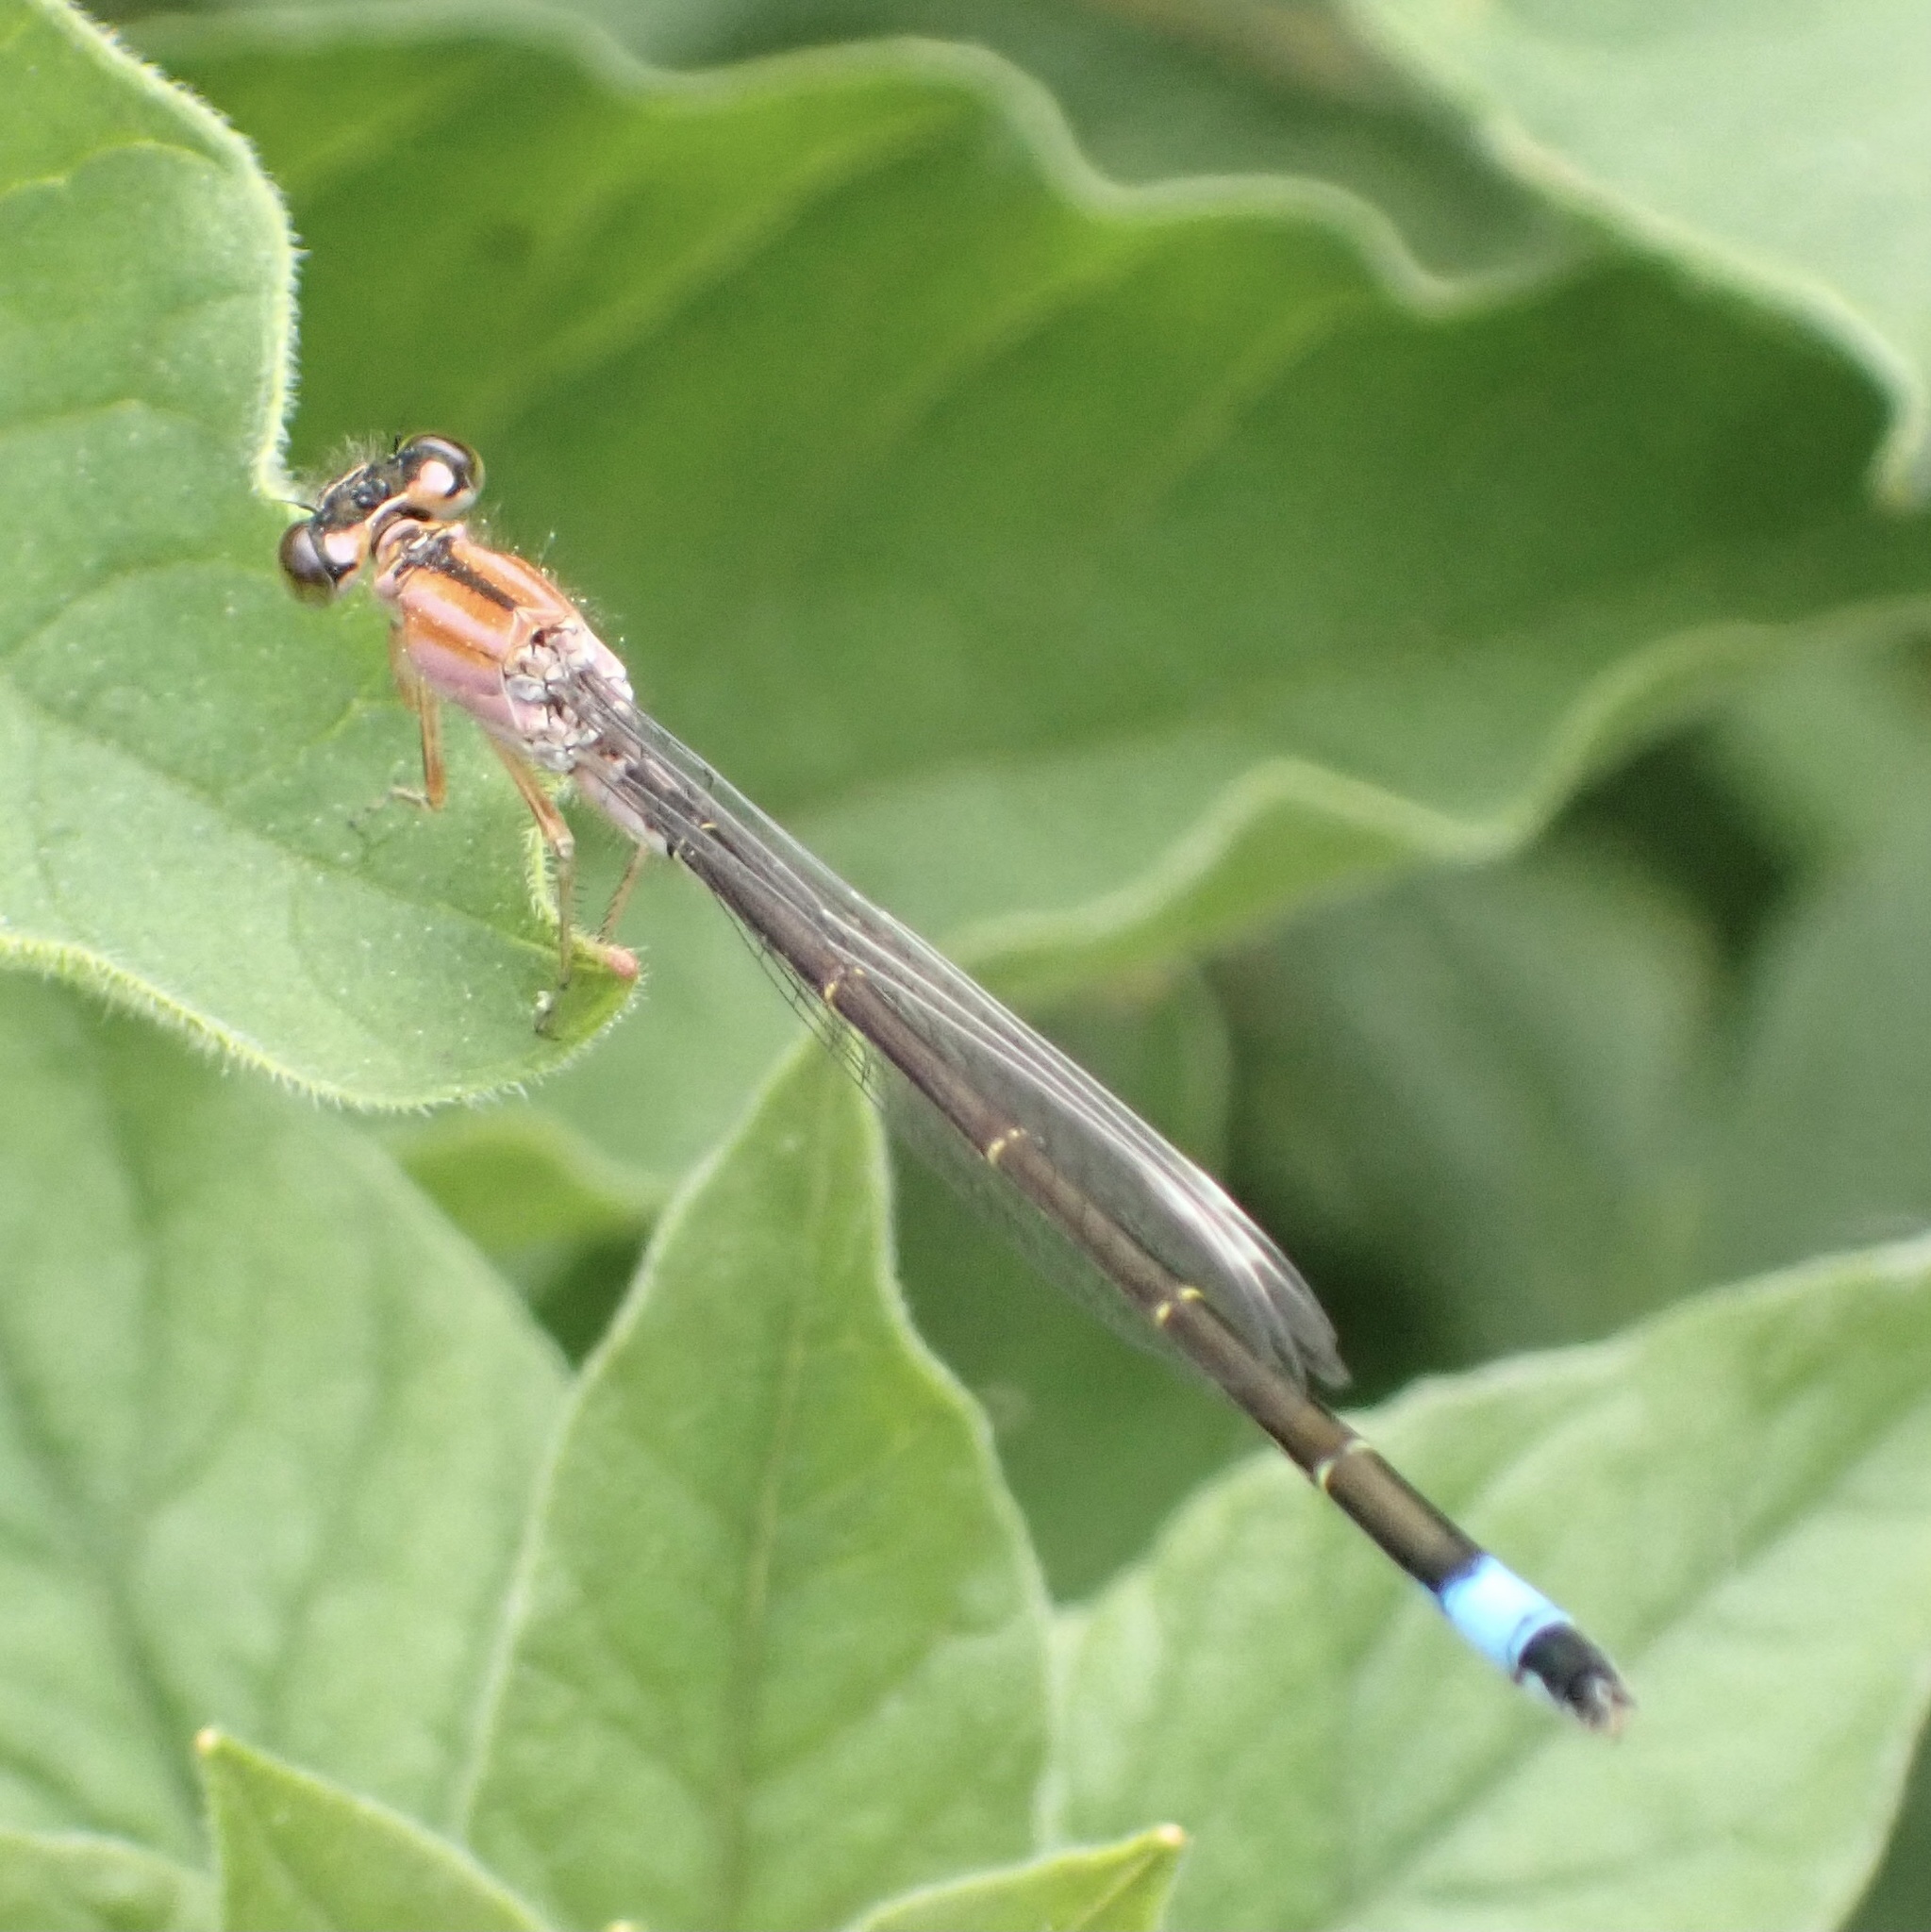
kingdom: Animalia
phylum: Arthropoda
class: Insecta
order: Odonata
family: Coenagrionidae
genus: Ischnura
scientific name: Ischnura elegans
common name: Blue-tailed damselfly
